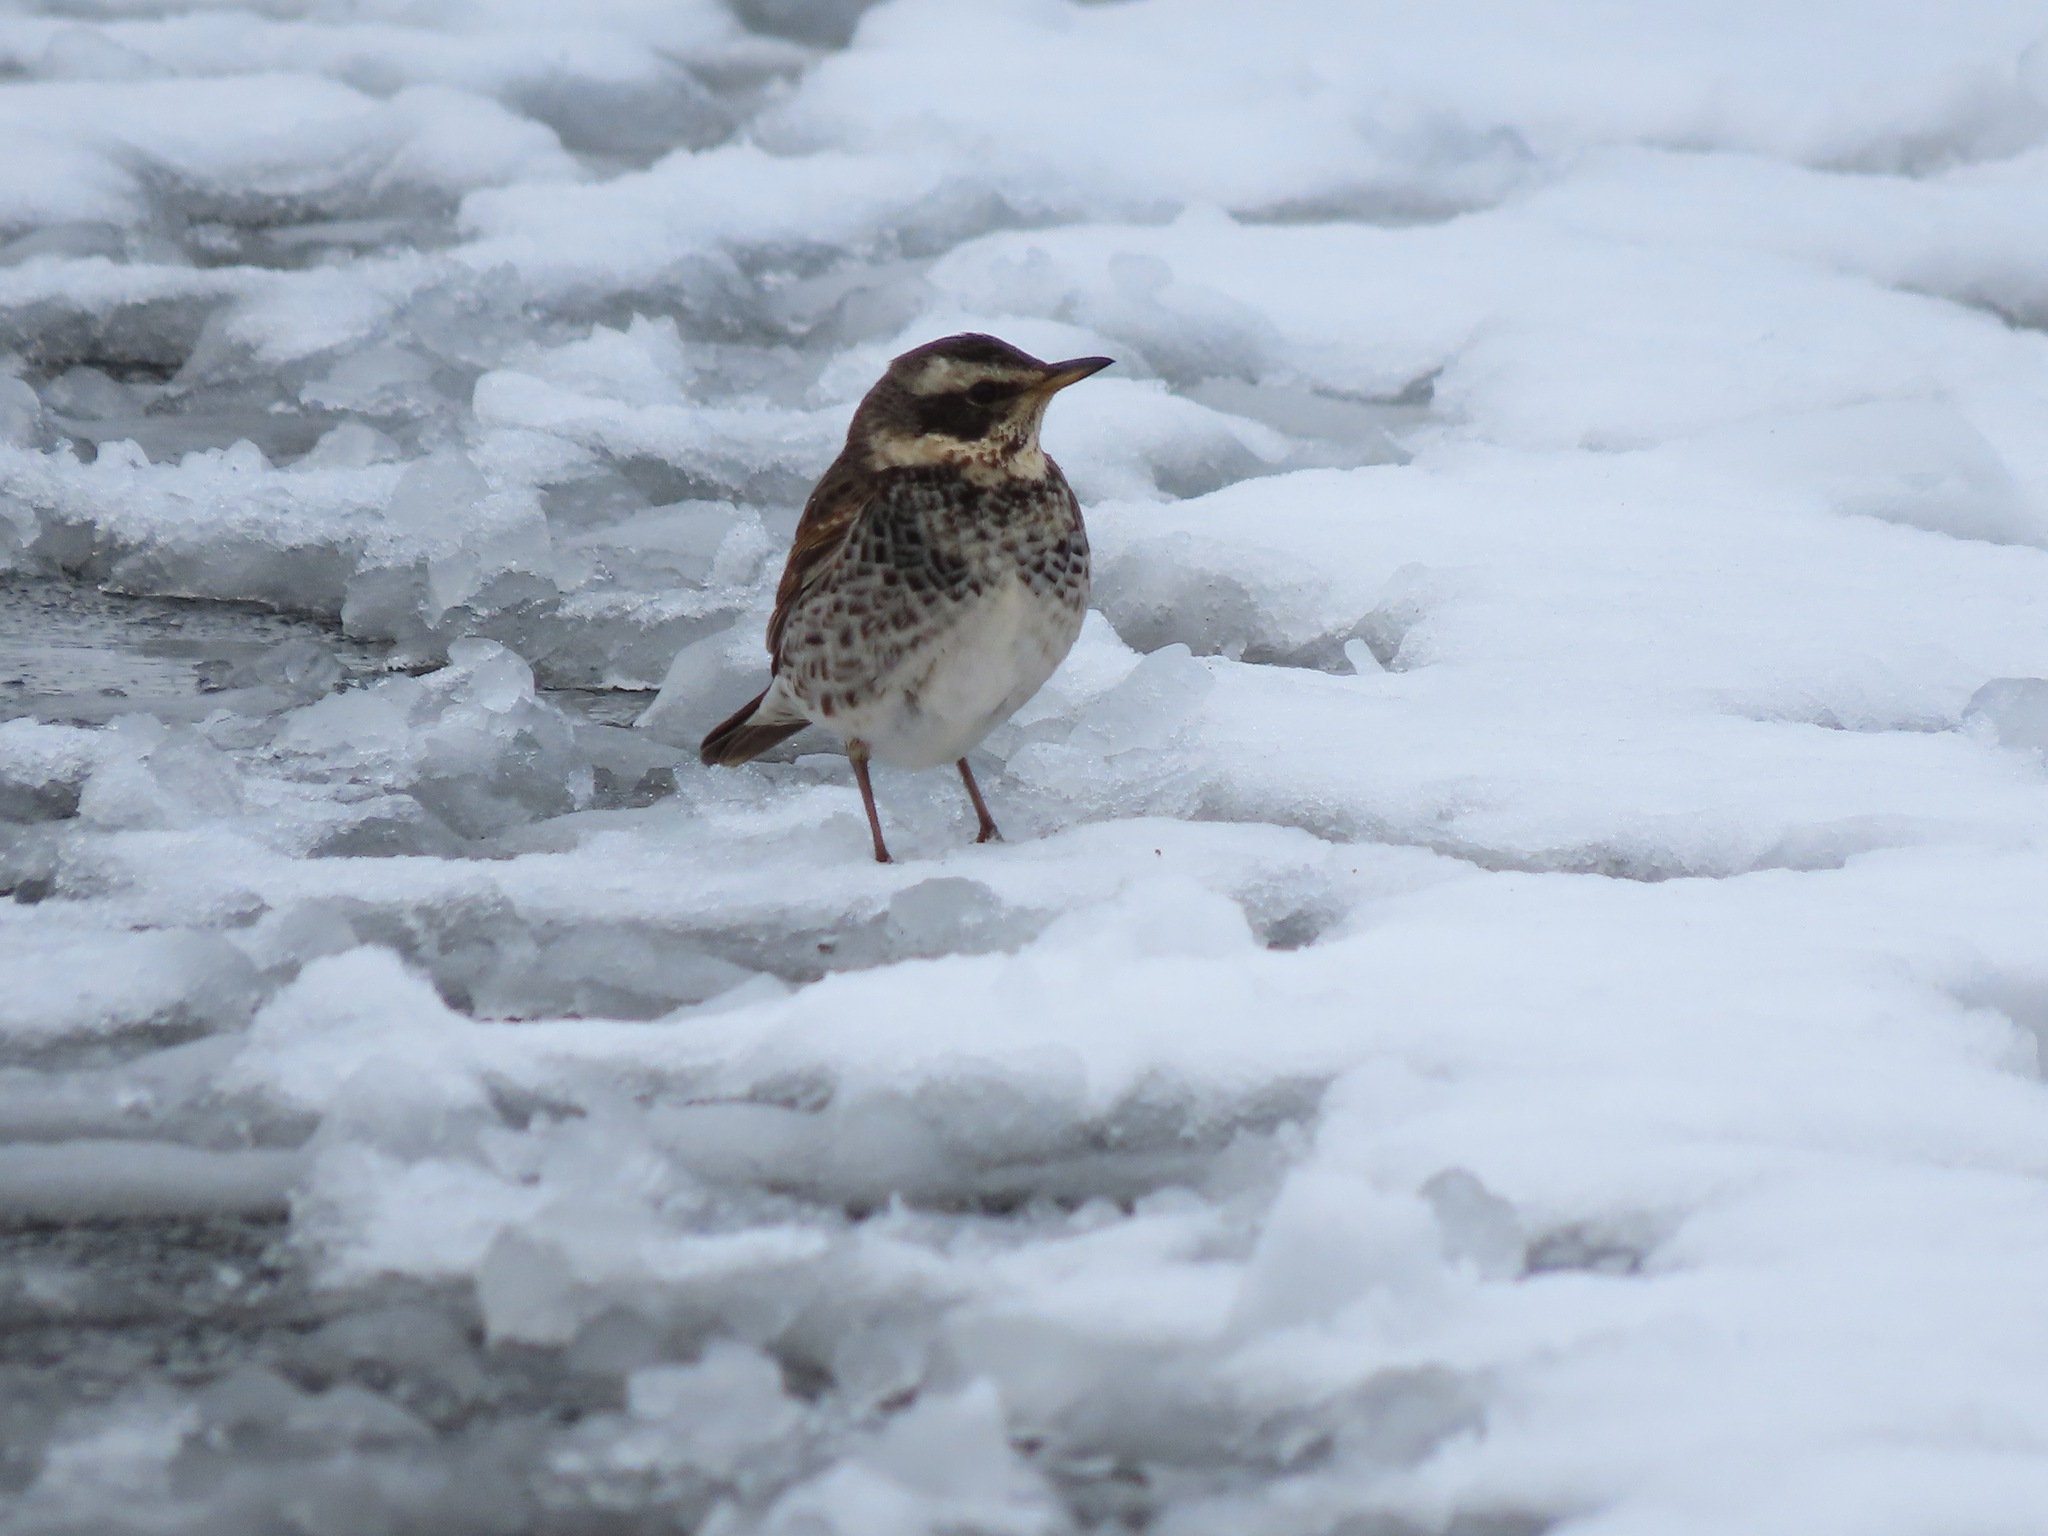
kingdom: Animalia
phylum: Chordata
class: Aves
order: Passeriformes
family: Turdidae
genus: Turdus
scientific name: Turdus eunomus
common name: Dusky thrush
